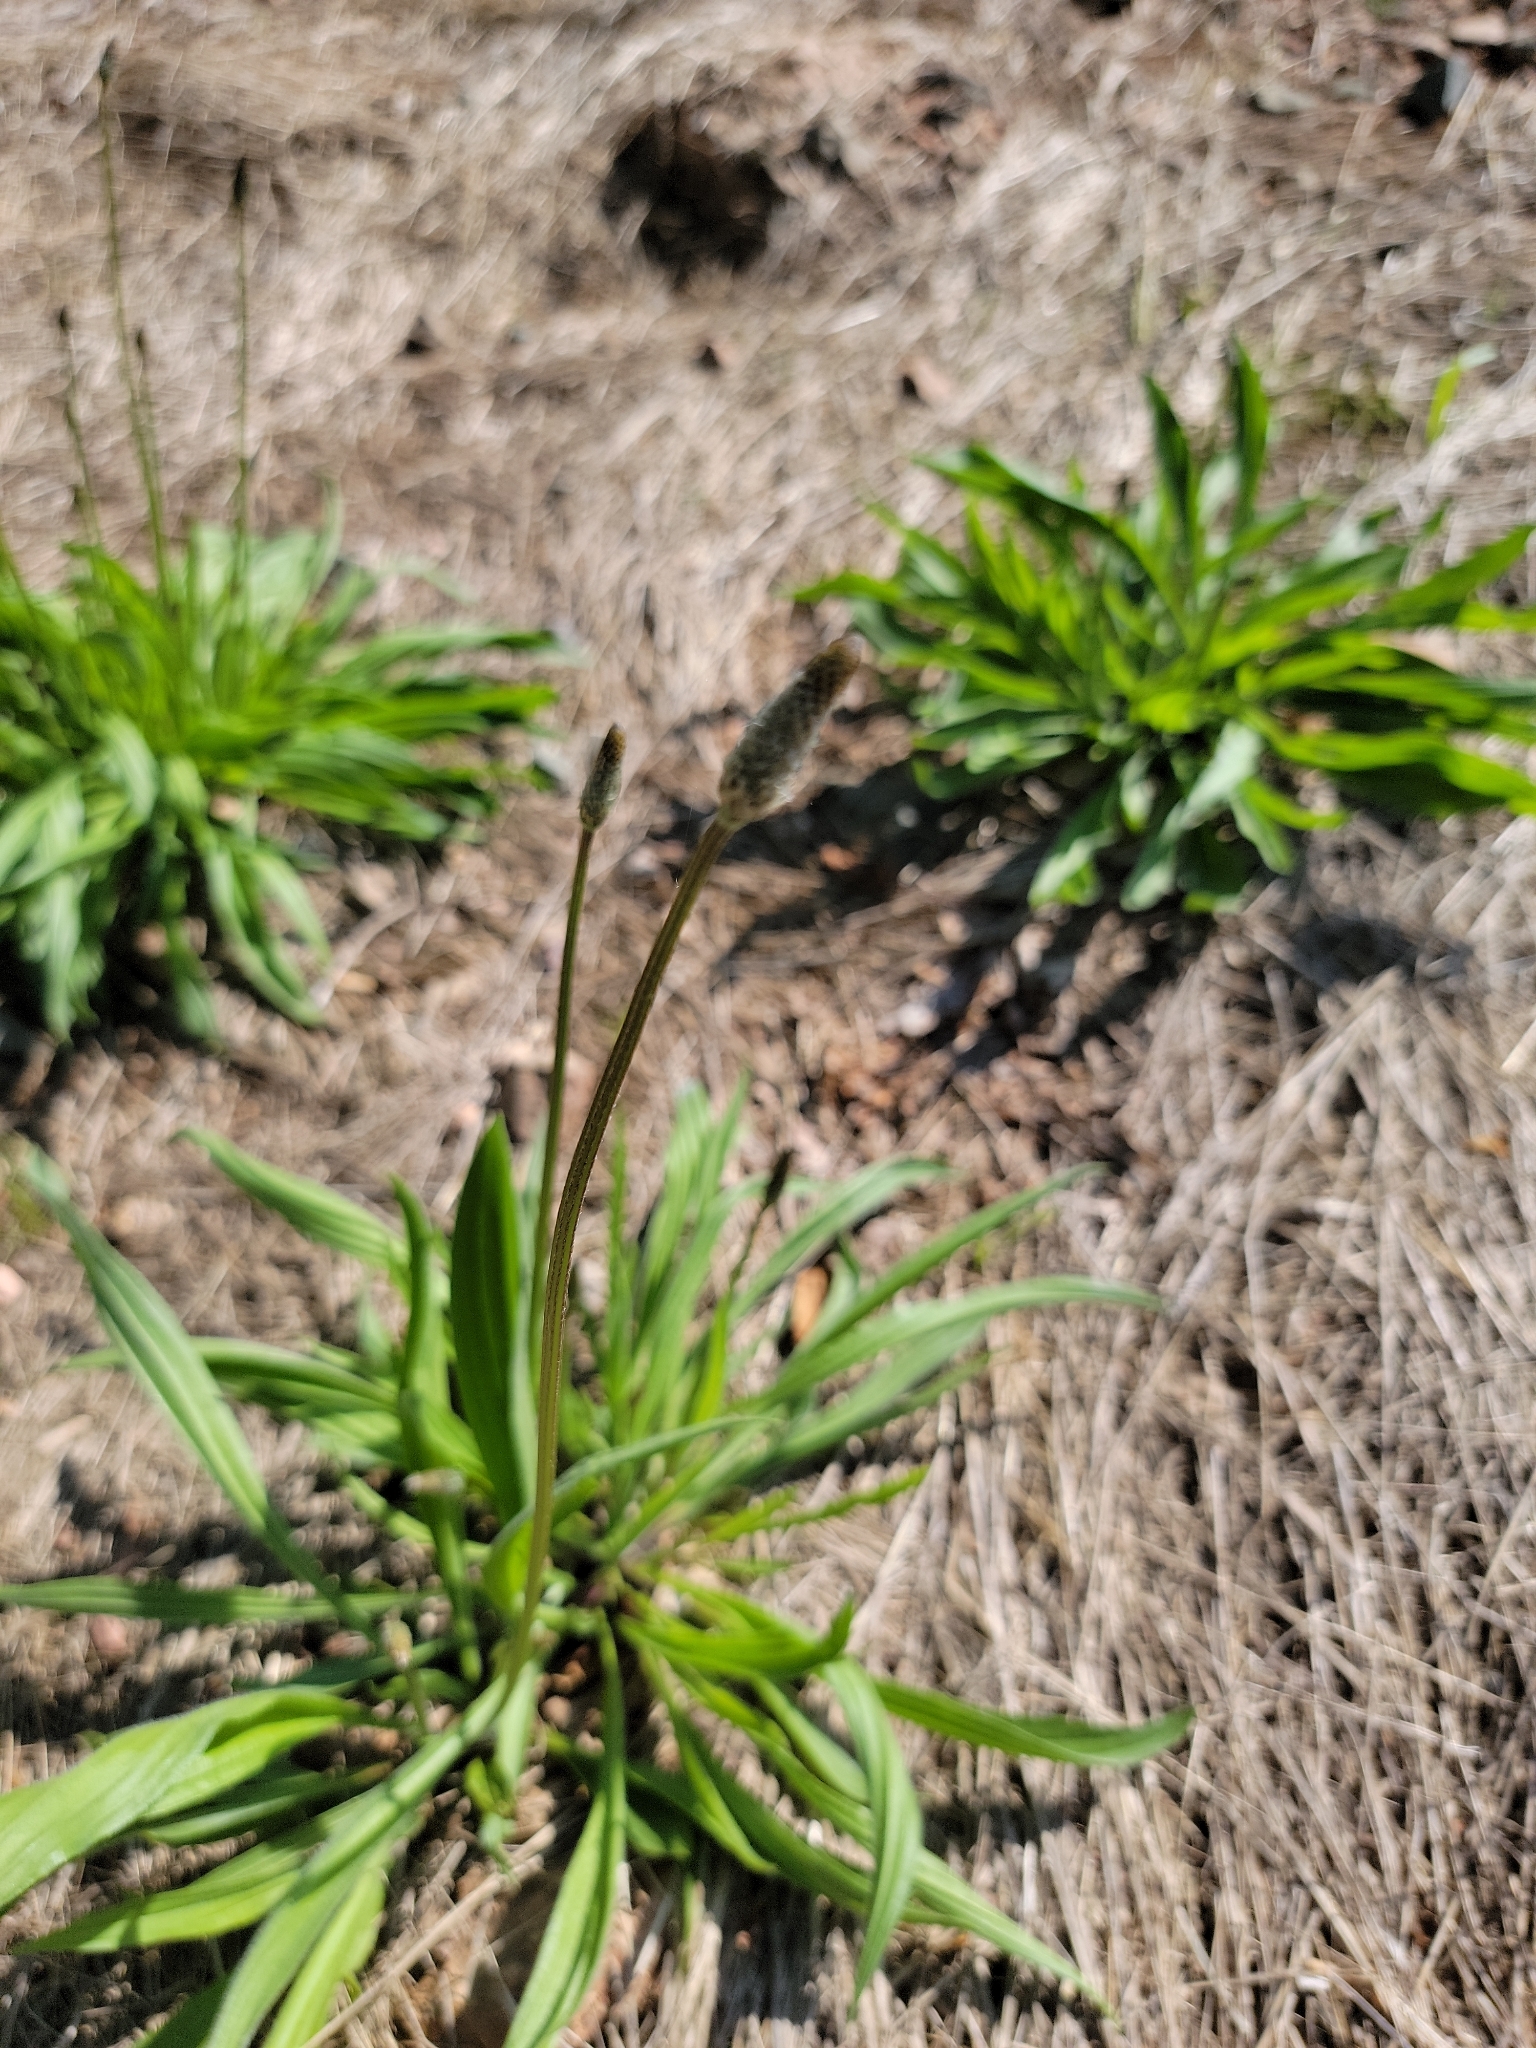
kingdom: Plantae
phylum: Tracheophyta
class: Magnoliopsida
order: Lamiales
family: Plantaginaceae
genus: Plantago
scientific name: Plantago lanceolata
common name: Ribwort plantain
